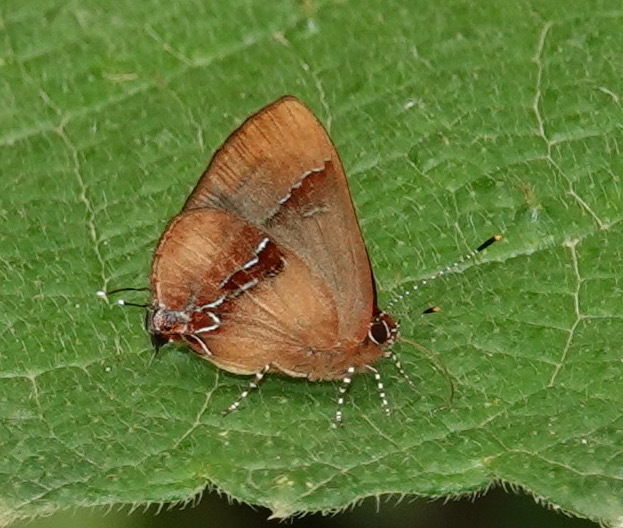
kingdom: Animalia
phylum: Arthropoda
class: Insecta
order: Lepidoptera
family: Lycaenidae
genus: Thecla
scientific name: Thecla demonassa
